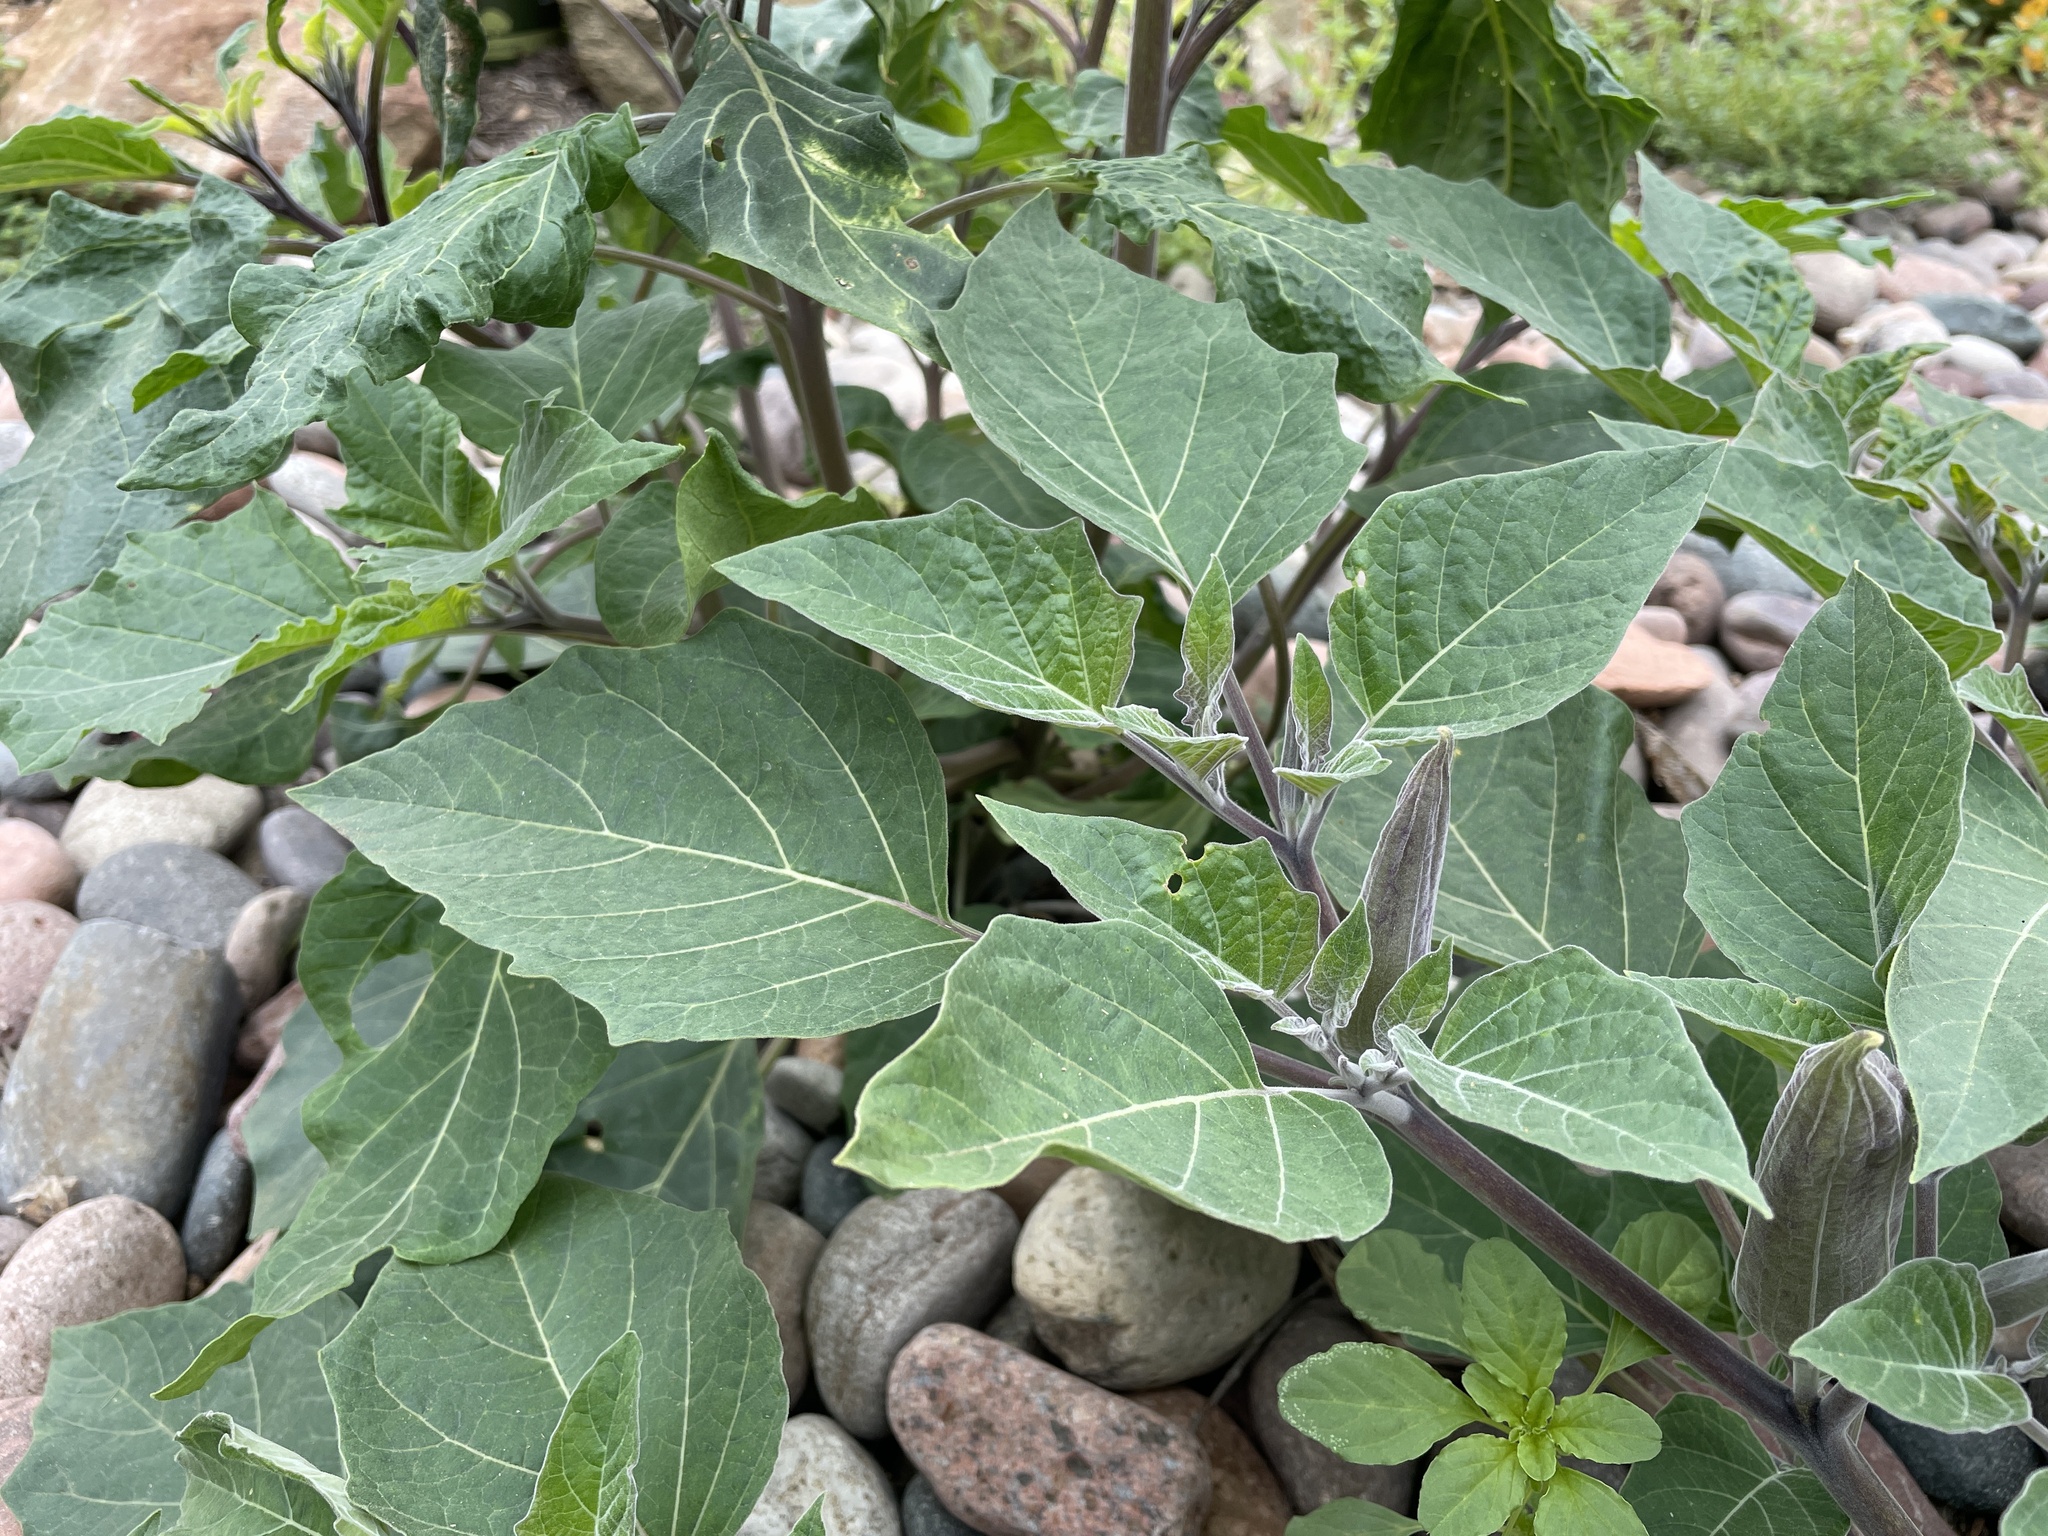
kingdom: Plantae
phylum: Tracheophyta
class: Magnoliopsida
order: Solanales
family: Solanaceae
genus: Datura
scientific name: Datura wrightii
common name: Sacred thorn-apple
